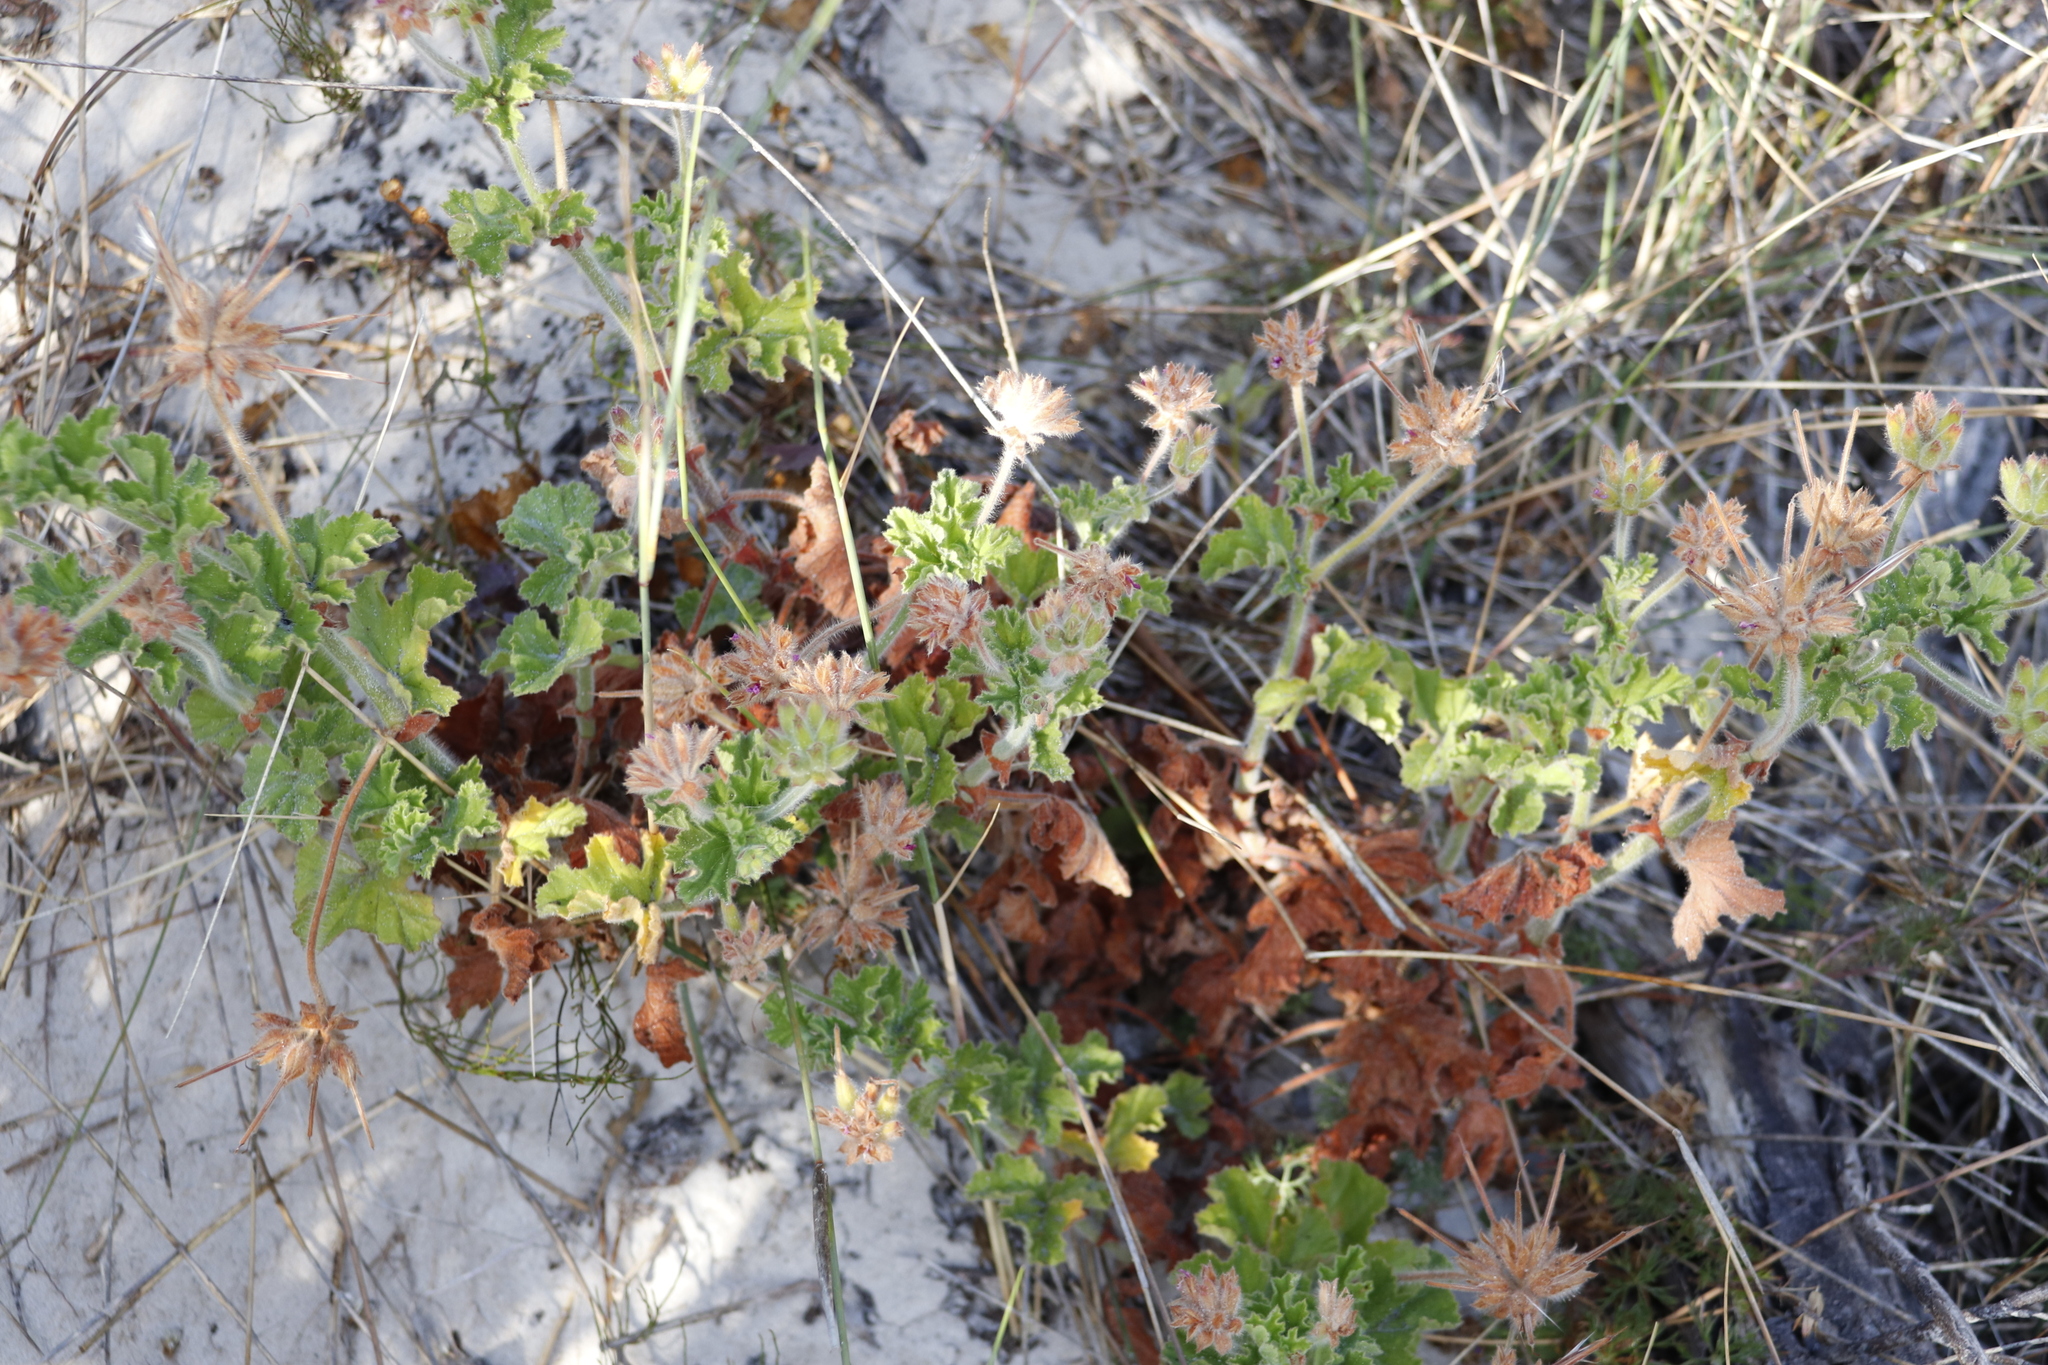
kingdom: Plantae
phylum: Tracheophyta
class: Magnoliopsida
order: Geraniales
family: Geraniaceae
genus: Pelargonium
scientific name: Pelargonium capitatum
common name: Rose scented geranium
